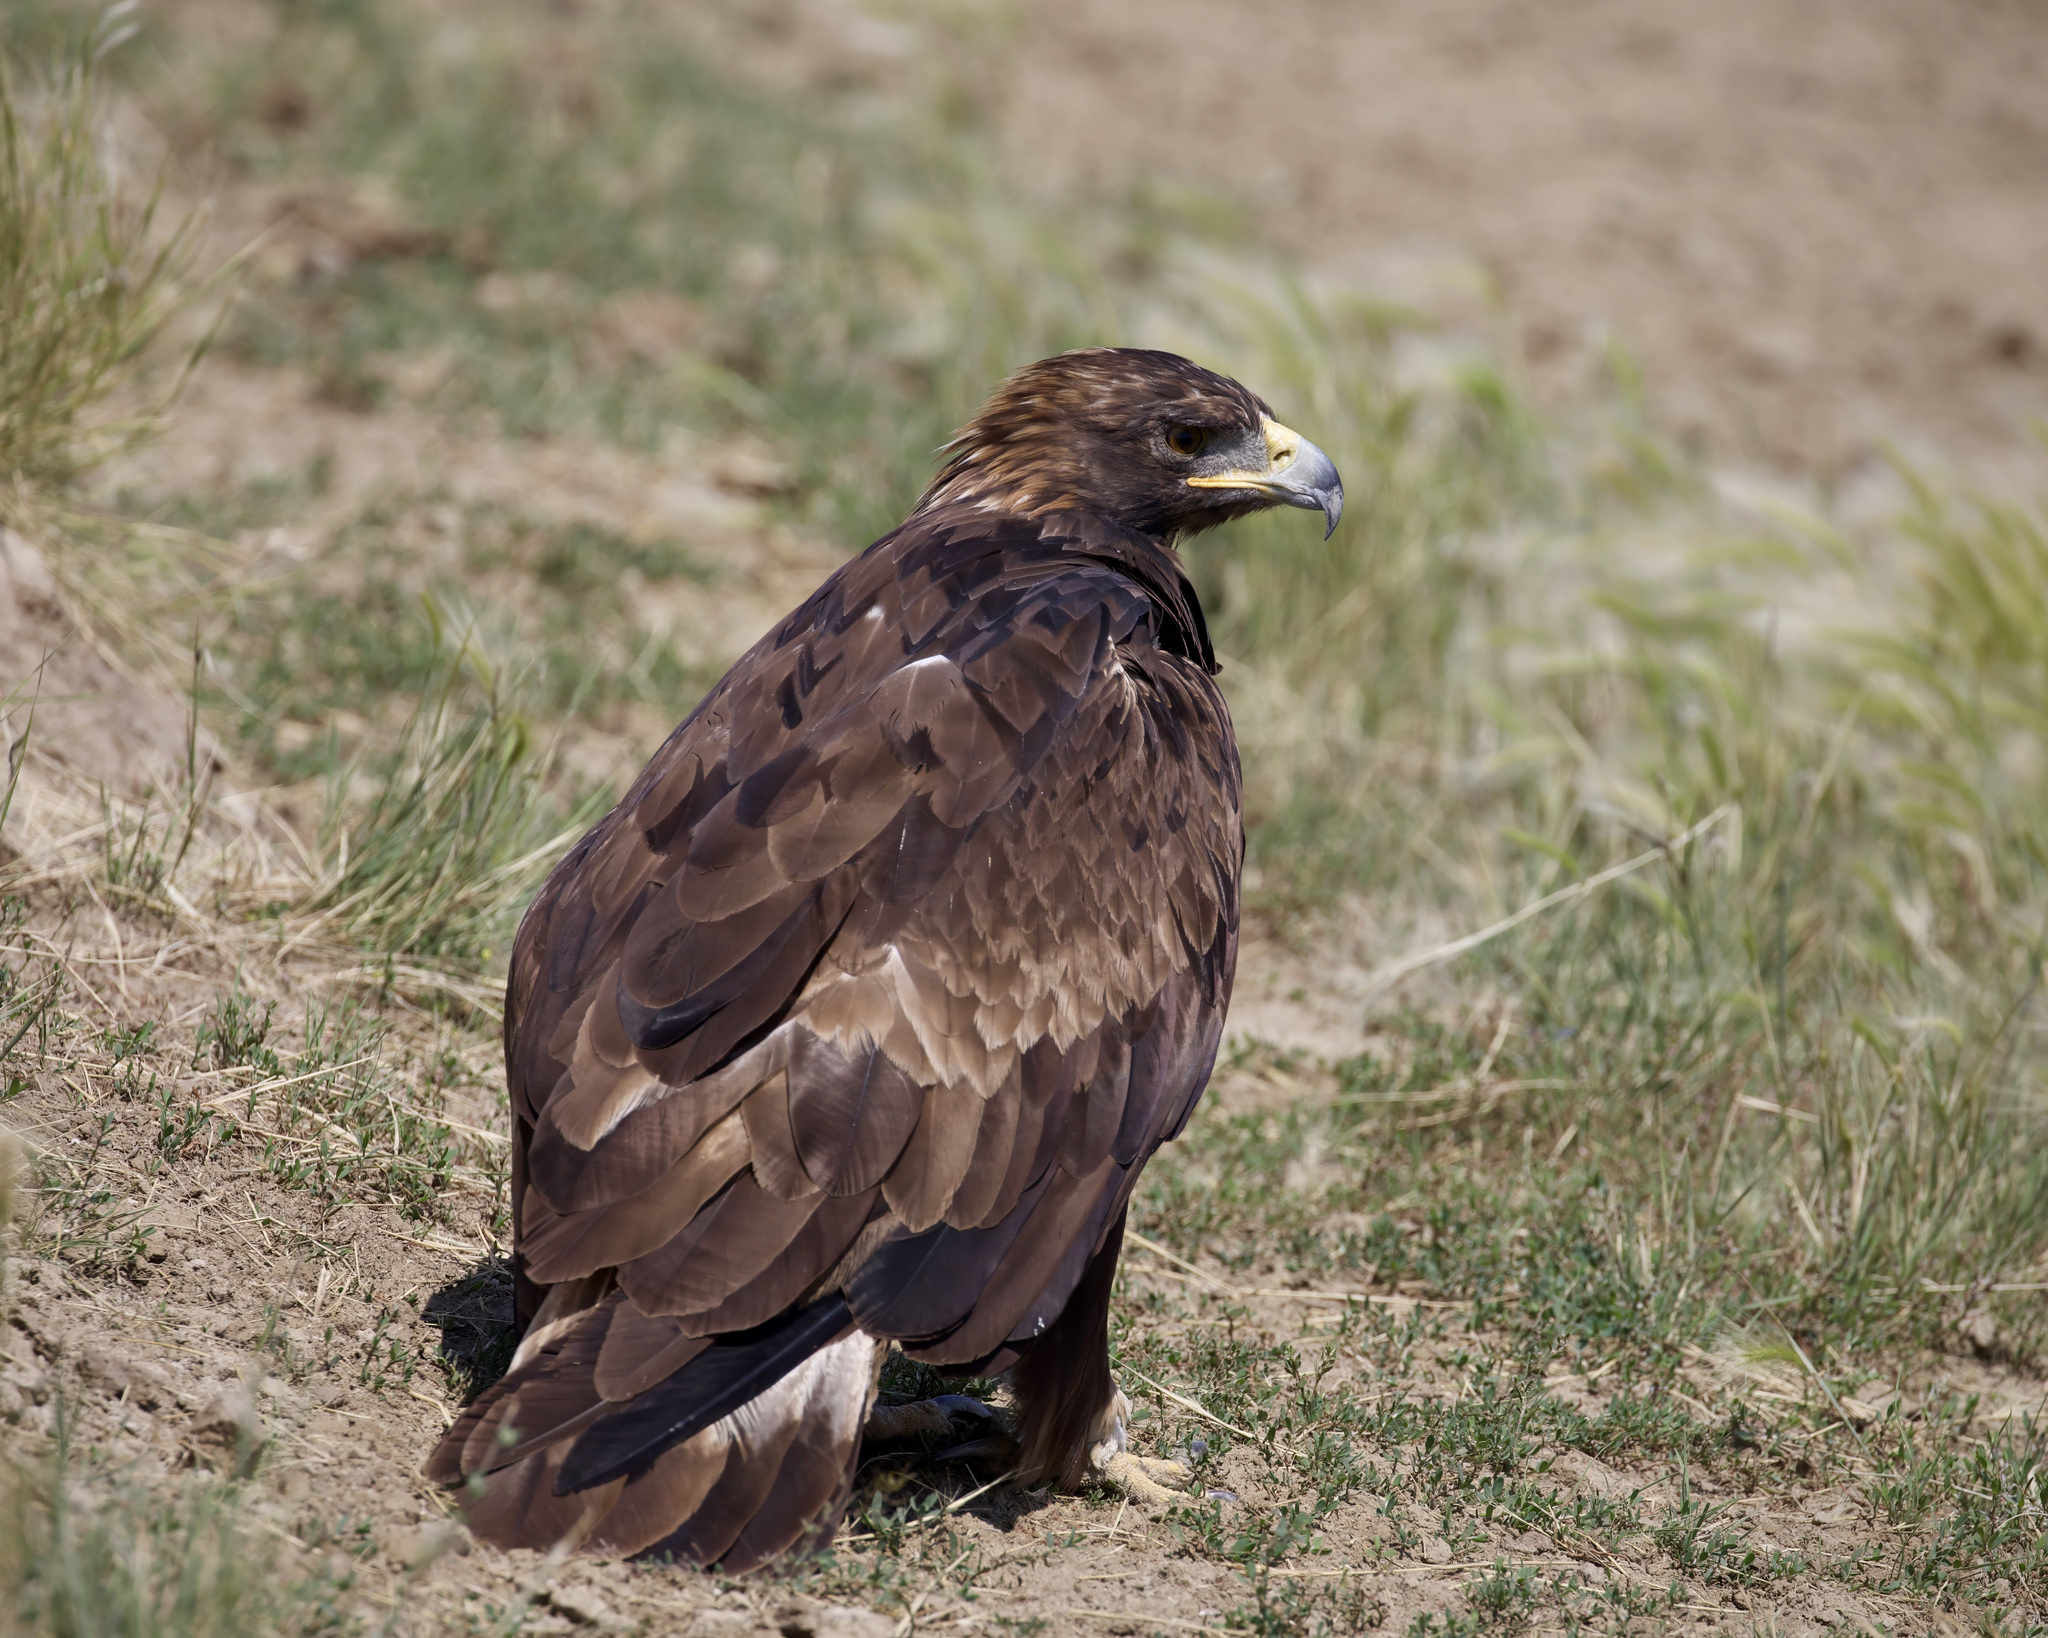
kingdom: Animalia
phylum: Chordata
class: Aves
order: Accipitriformes
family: Accipitridae
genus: Aquila
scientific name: Aquila chrysaetos
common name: Golden eagle
